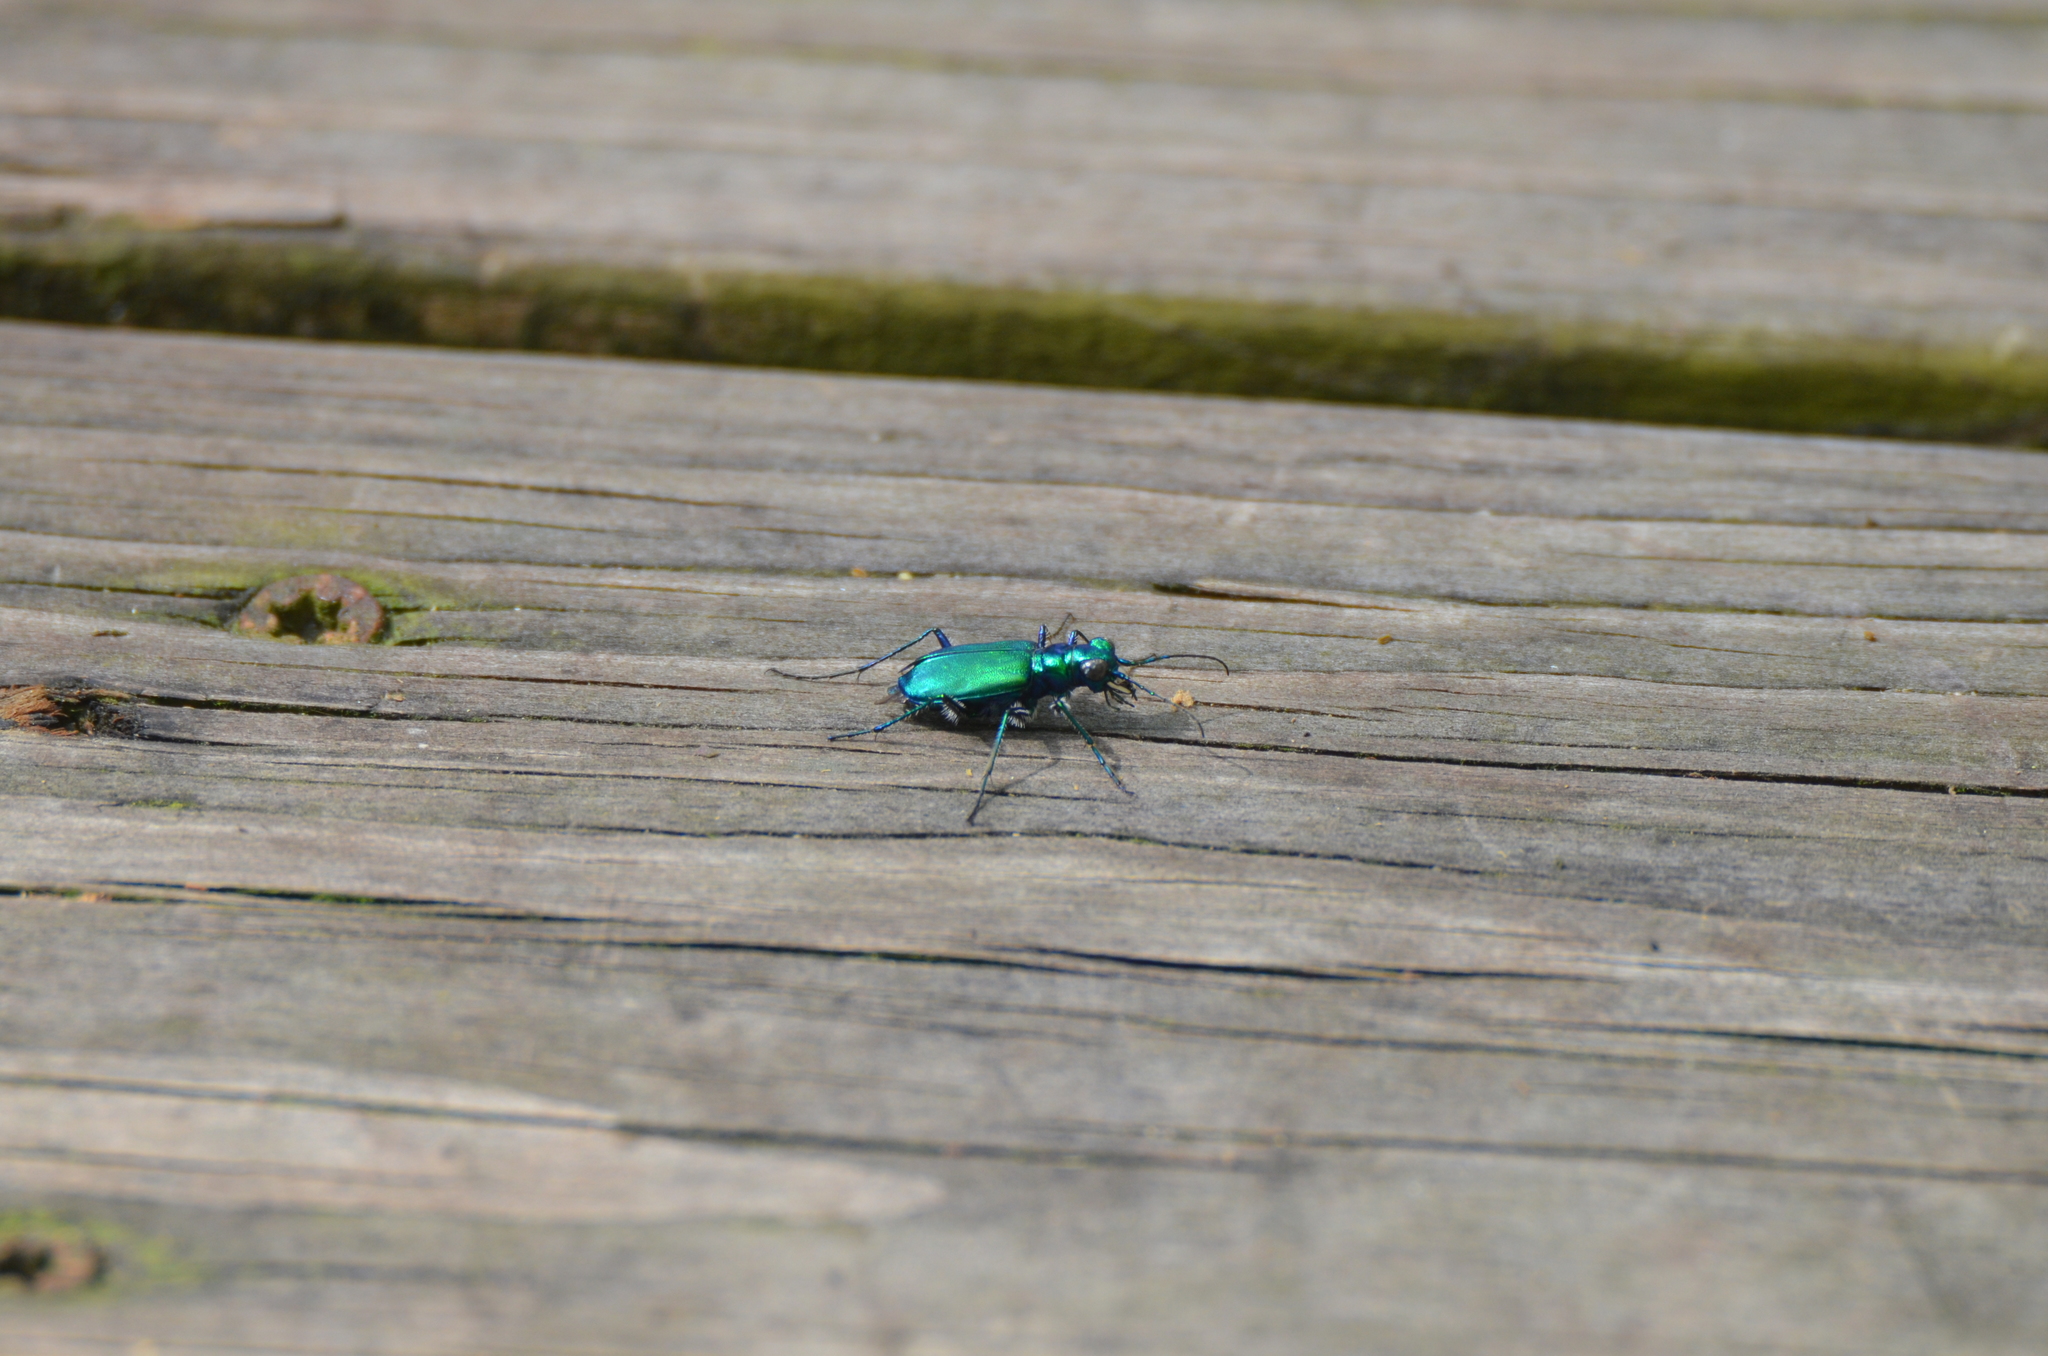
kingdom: Animalia
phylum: Arthropoda
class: Insecta
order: Coleoptera
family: Carabidae
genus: Cicindela
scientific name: Cicindela sexguttata
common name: Six-spotted tiger beetle
